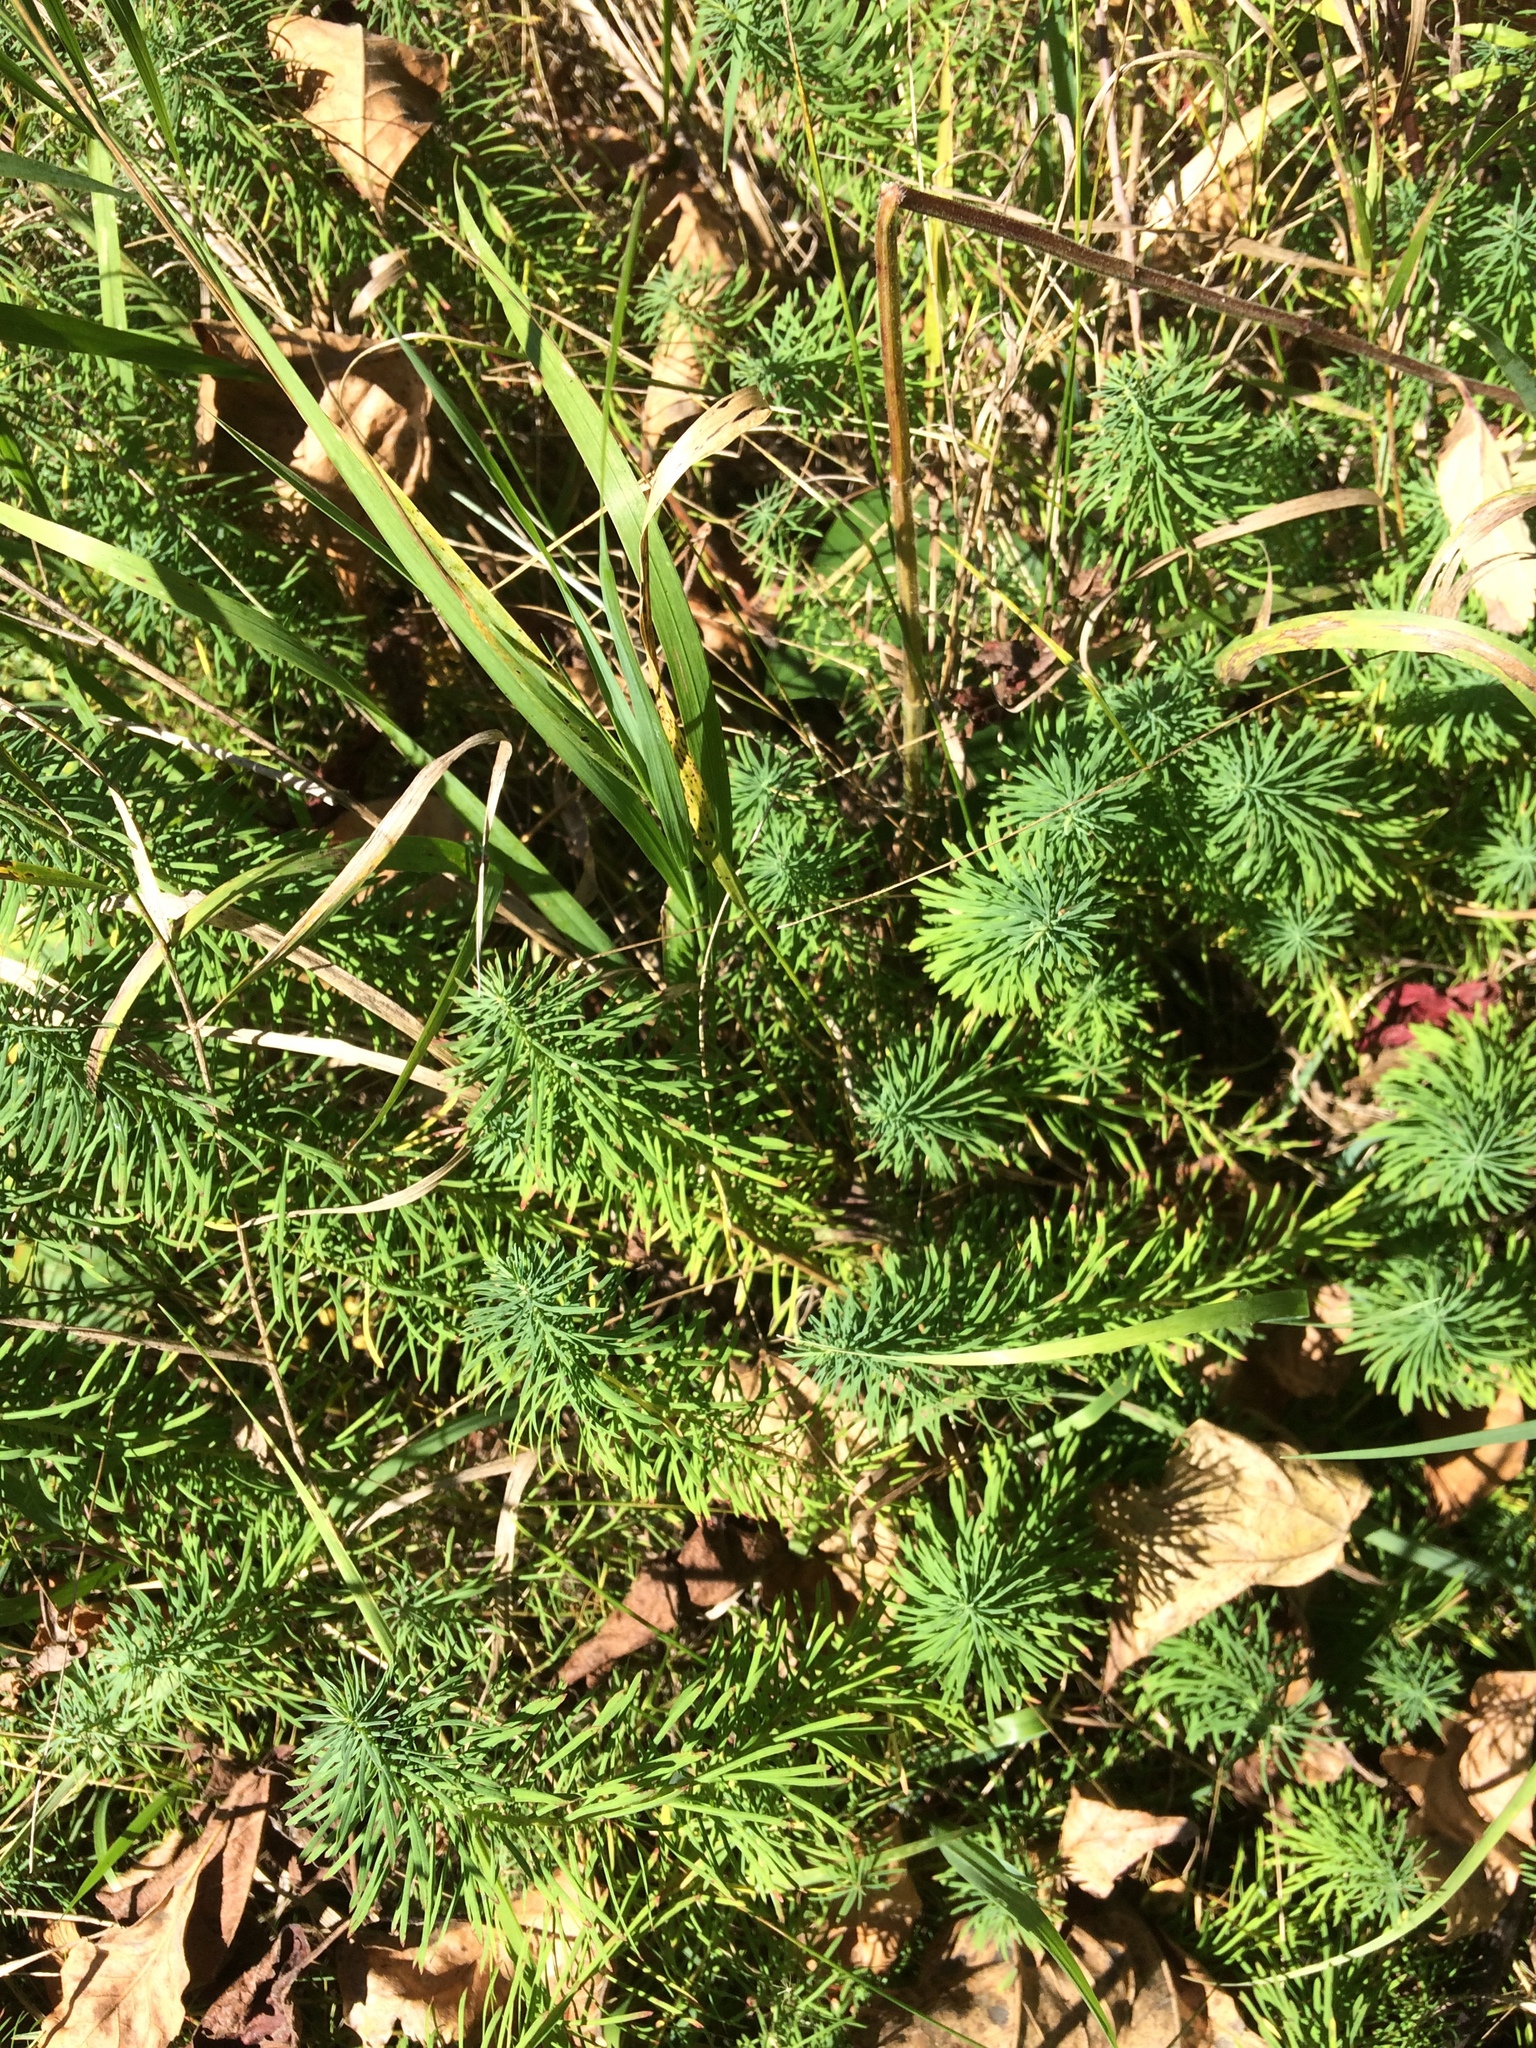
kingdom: Plantae
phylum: Tracheophyta
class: Magnoliopsida
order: Malpighiales
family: Euphorbiaceae
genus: Euphorbia
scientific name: Euphorbia cyparissias
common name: Cypress spurge
